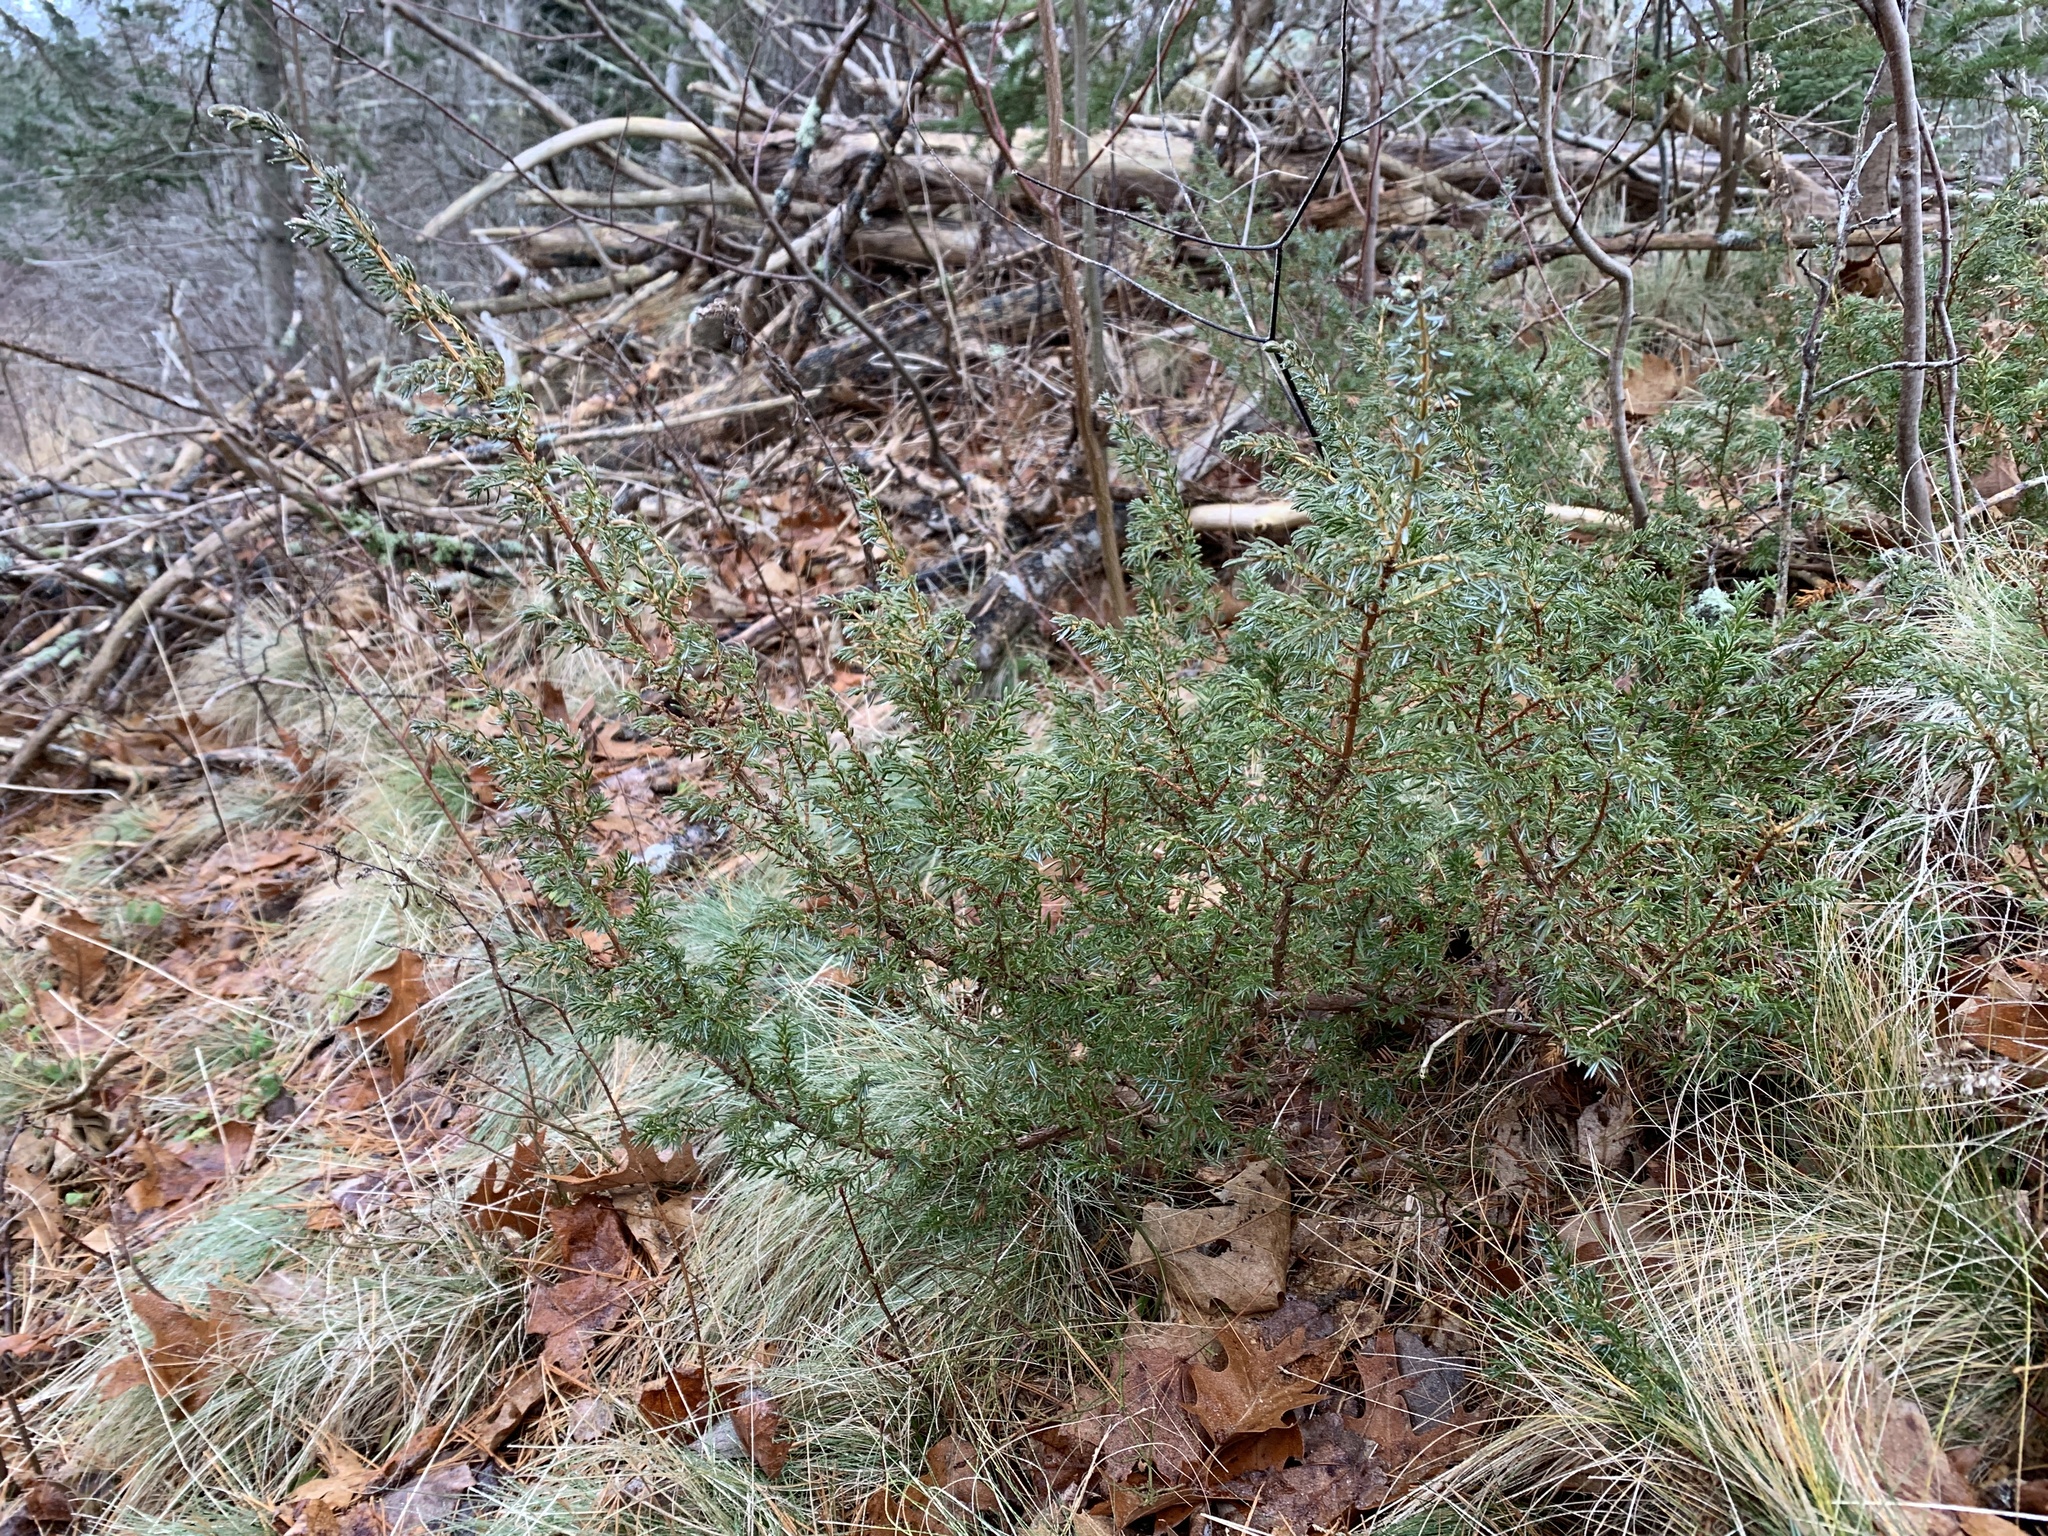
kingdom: Plantae
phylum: Tracheophyta
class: Pinopsida
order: Pinales
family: Cupressaceae
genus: Juniperus
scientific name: Juniperus communis
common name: Common juniper
